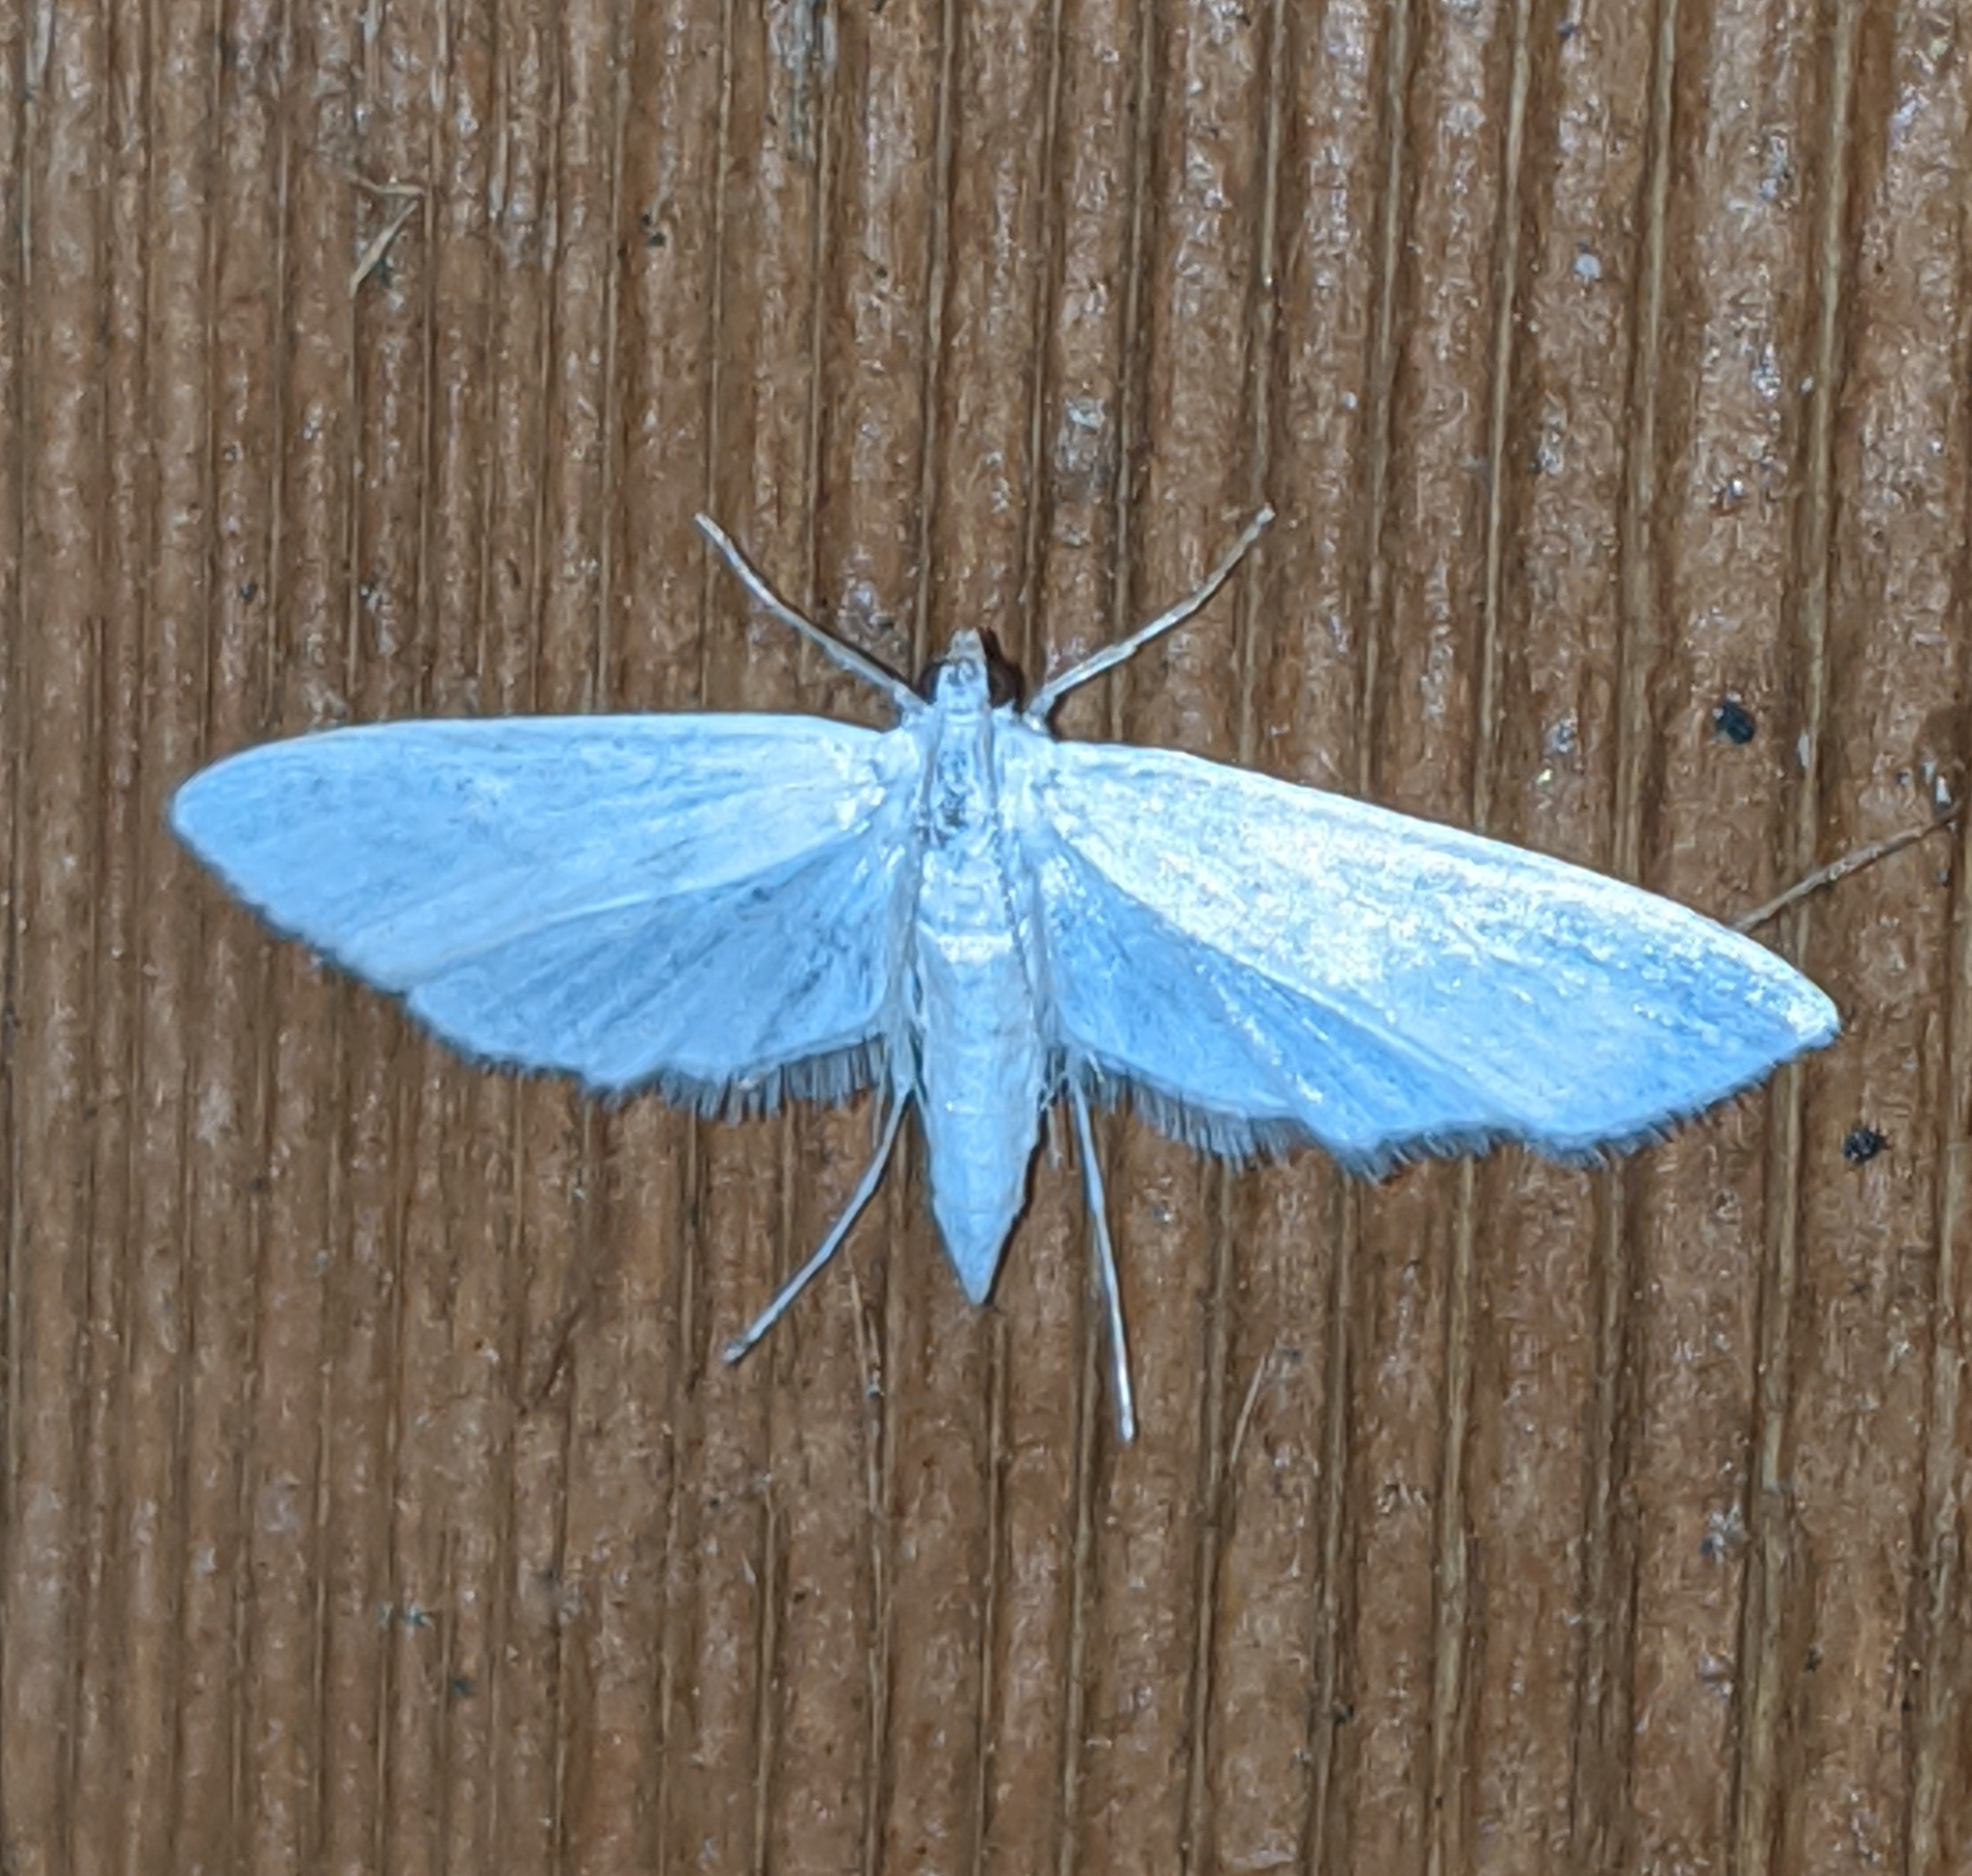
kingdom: Animalia
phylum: Arthropoda
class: Insecta
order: Lepidoptera
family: Crambidae
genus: Parapoynx
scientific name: Parapoynx allionealis
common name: Bladderwort casemaker
